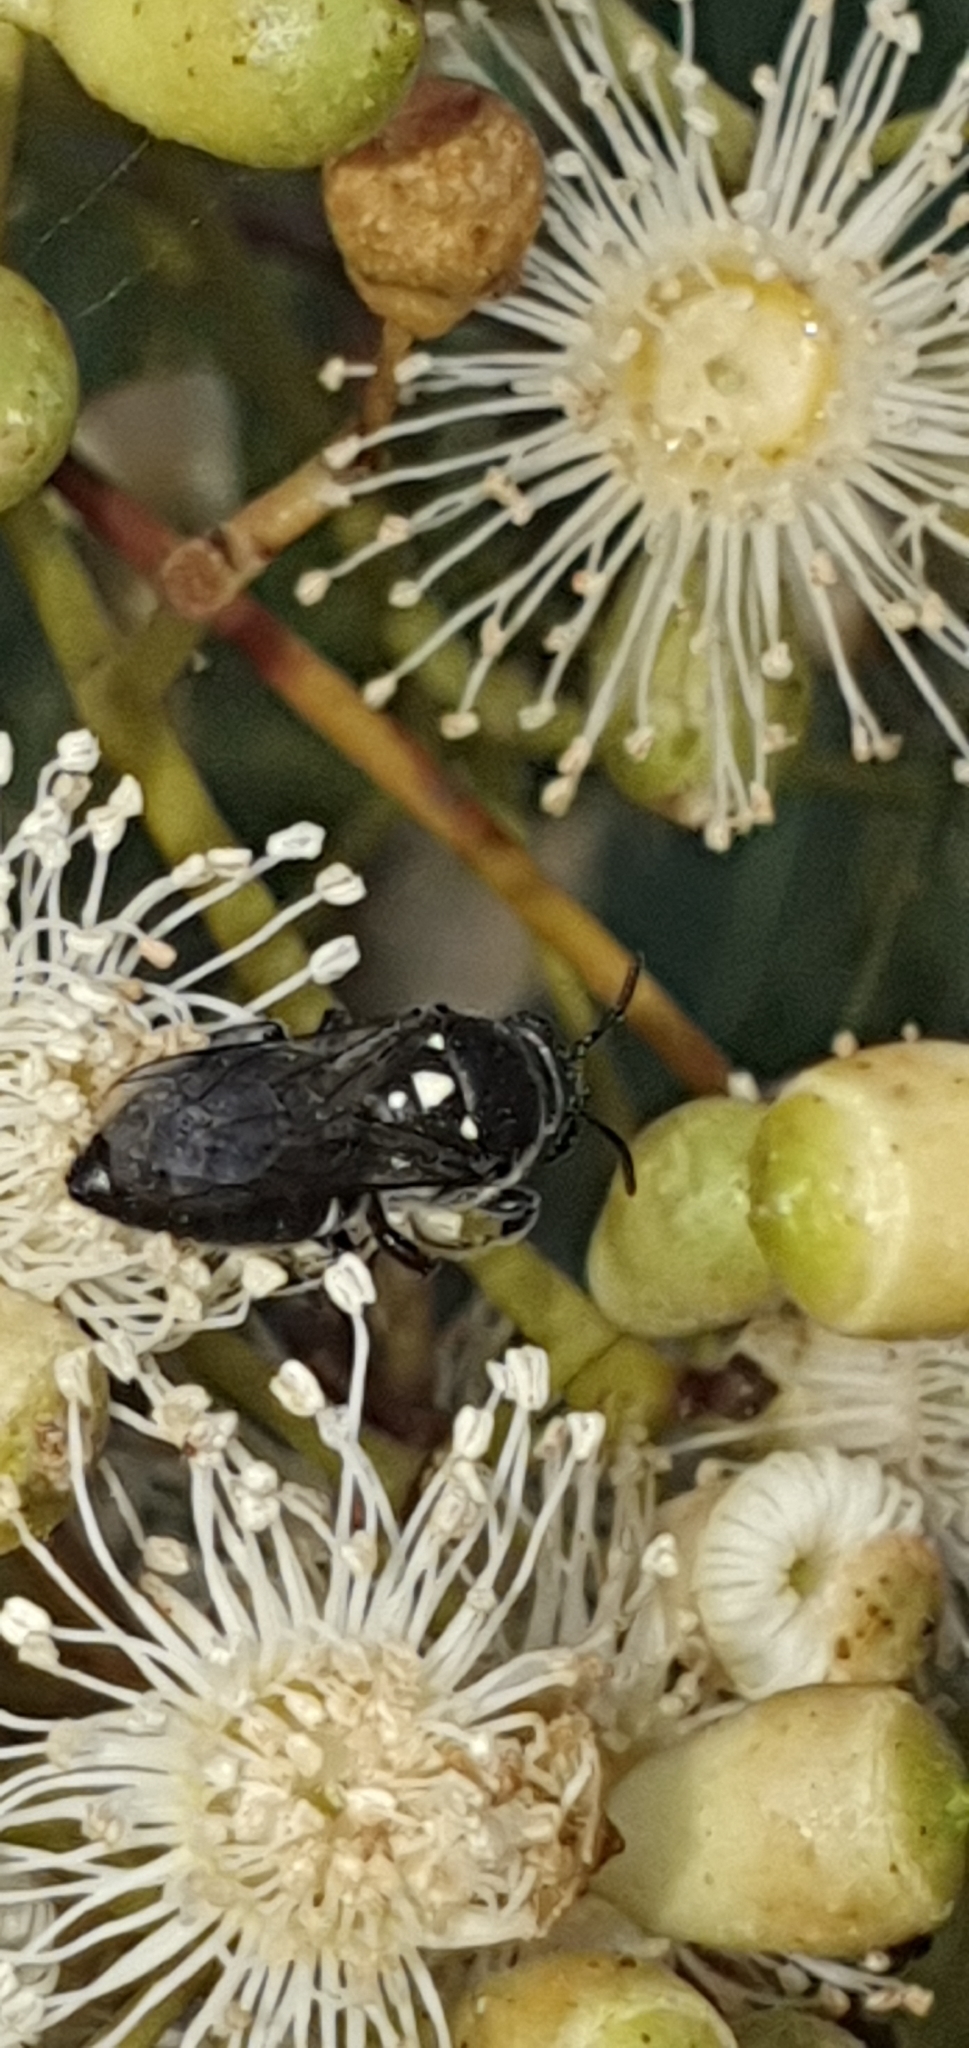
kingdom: Animalia
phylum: Arthropoda
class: Insecta
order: Hymenoptera
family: Colletidae
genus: Meroglossa
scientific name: Meroglossa impressifrons
